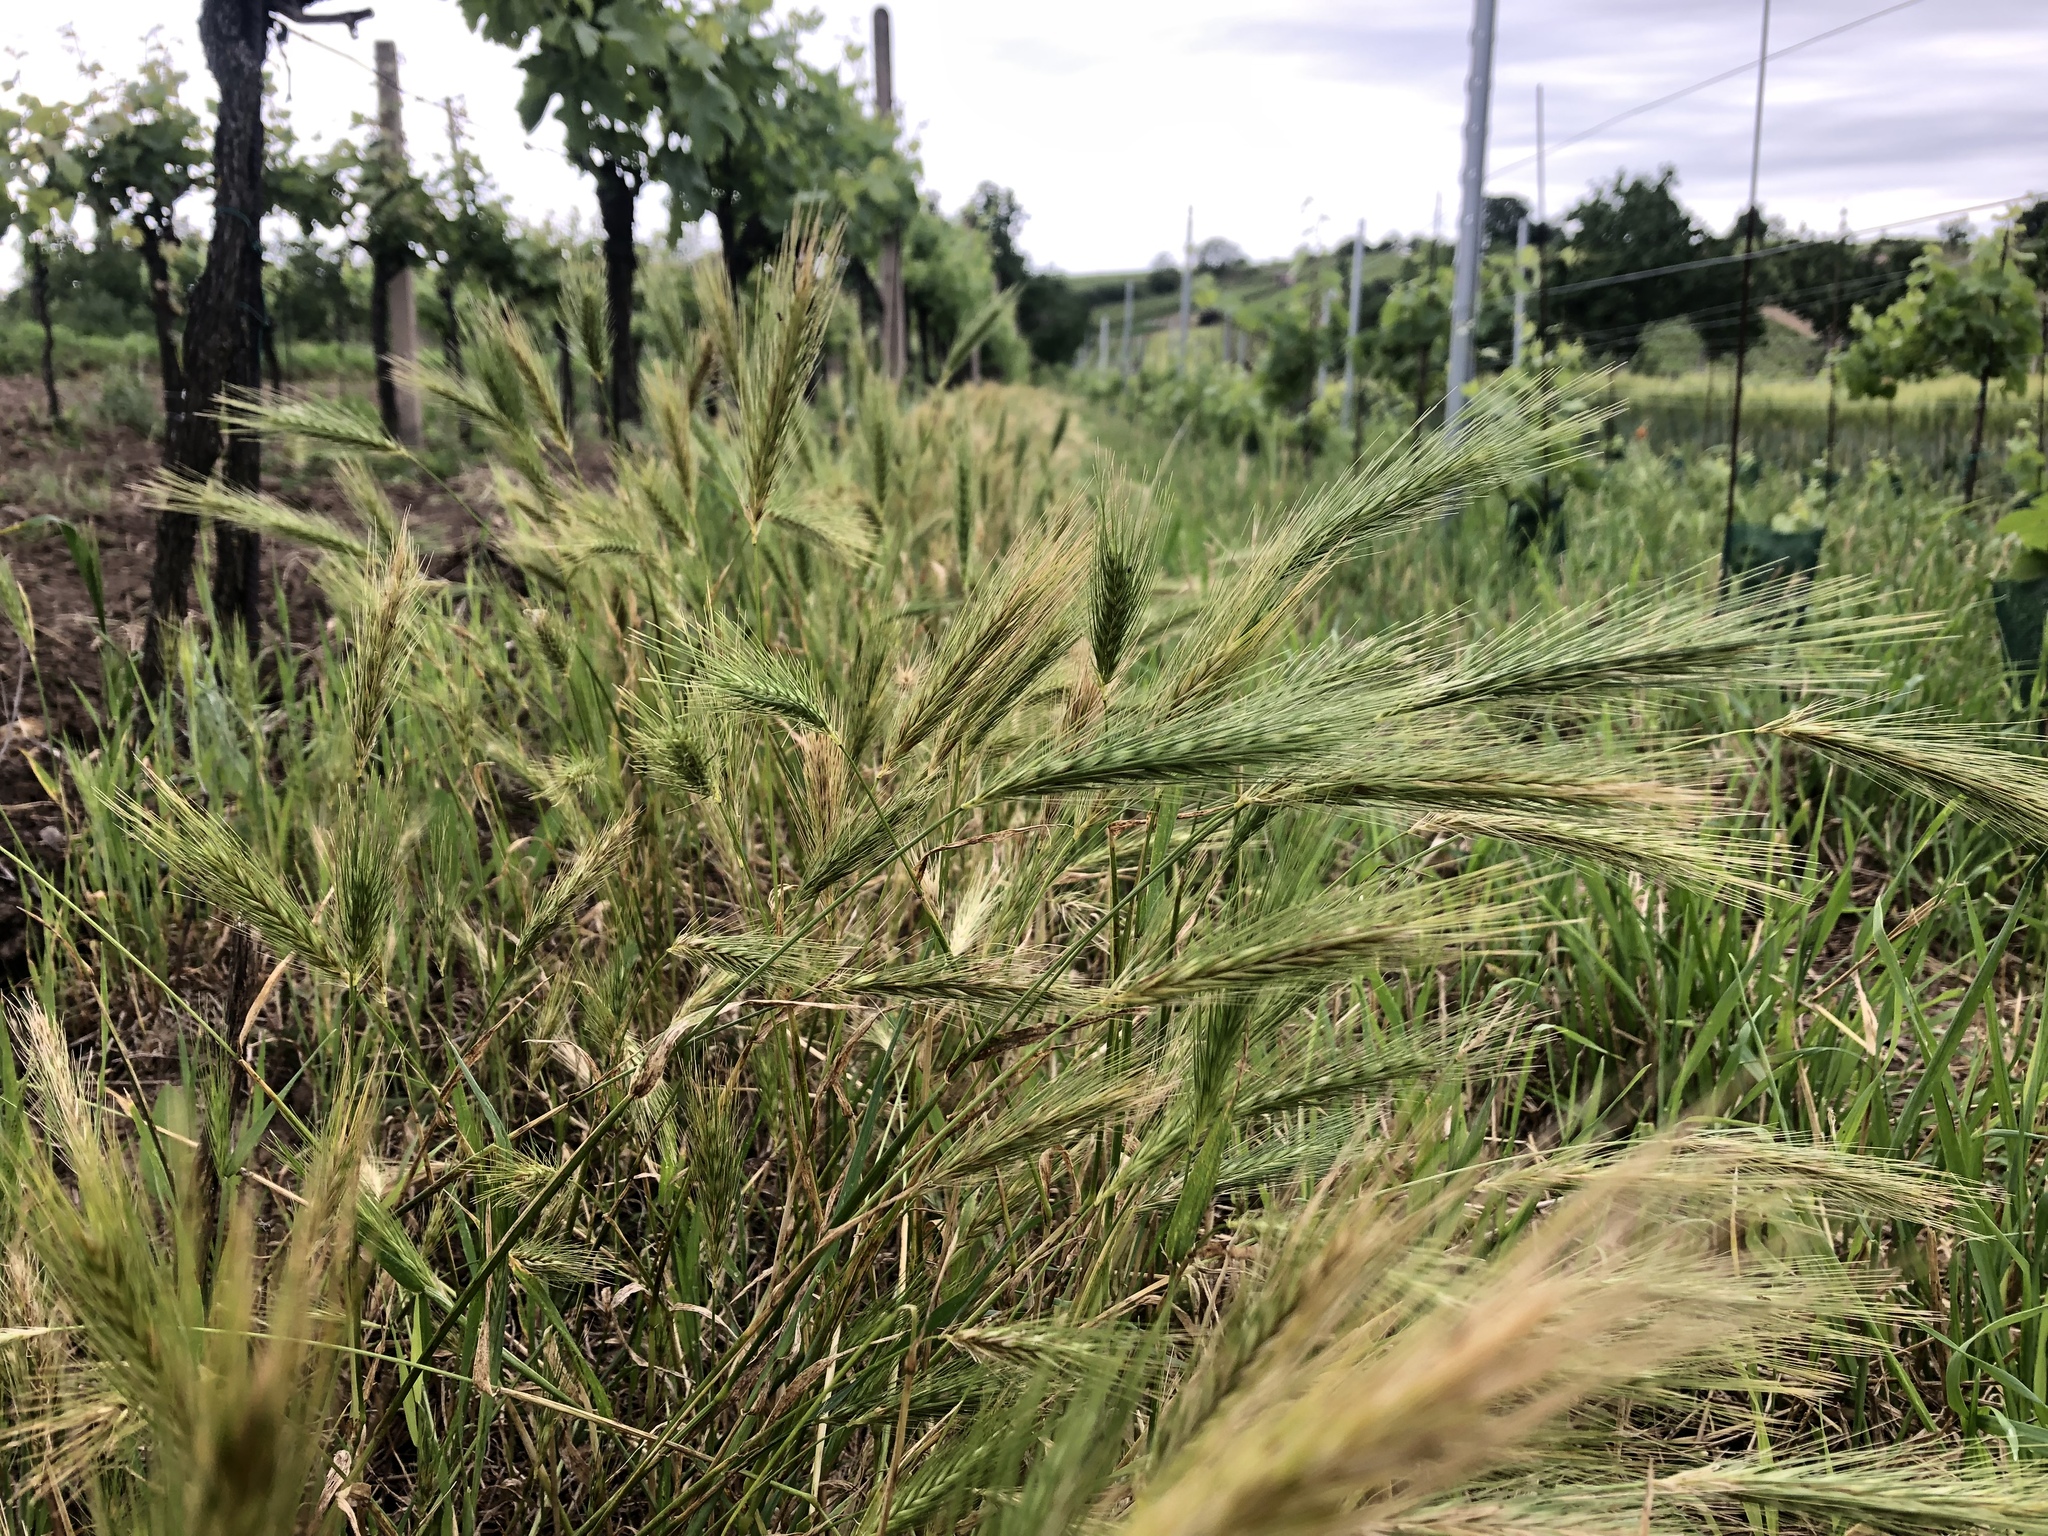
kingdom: Plantae
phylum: Tracheophyta
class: Liliopsida
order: Poales
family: Poaceae
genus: Hordeum
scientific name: Hordeum murinum
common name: Wall barley
